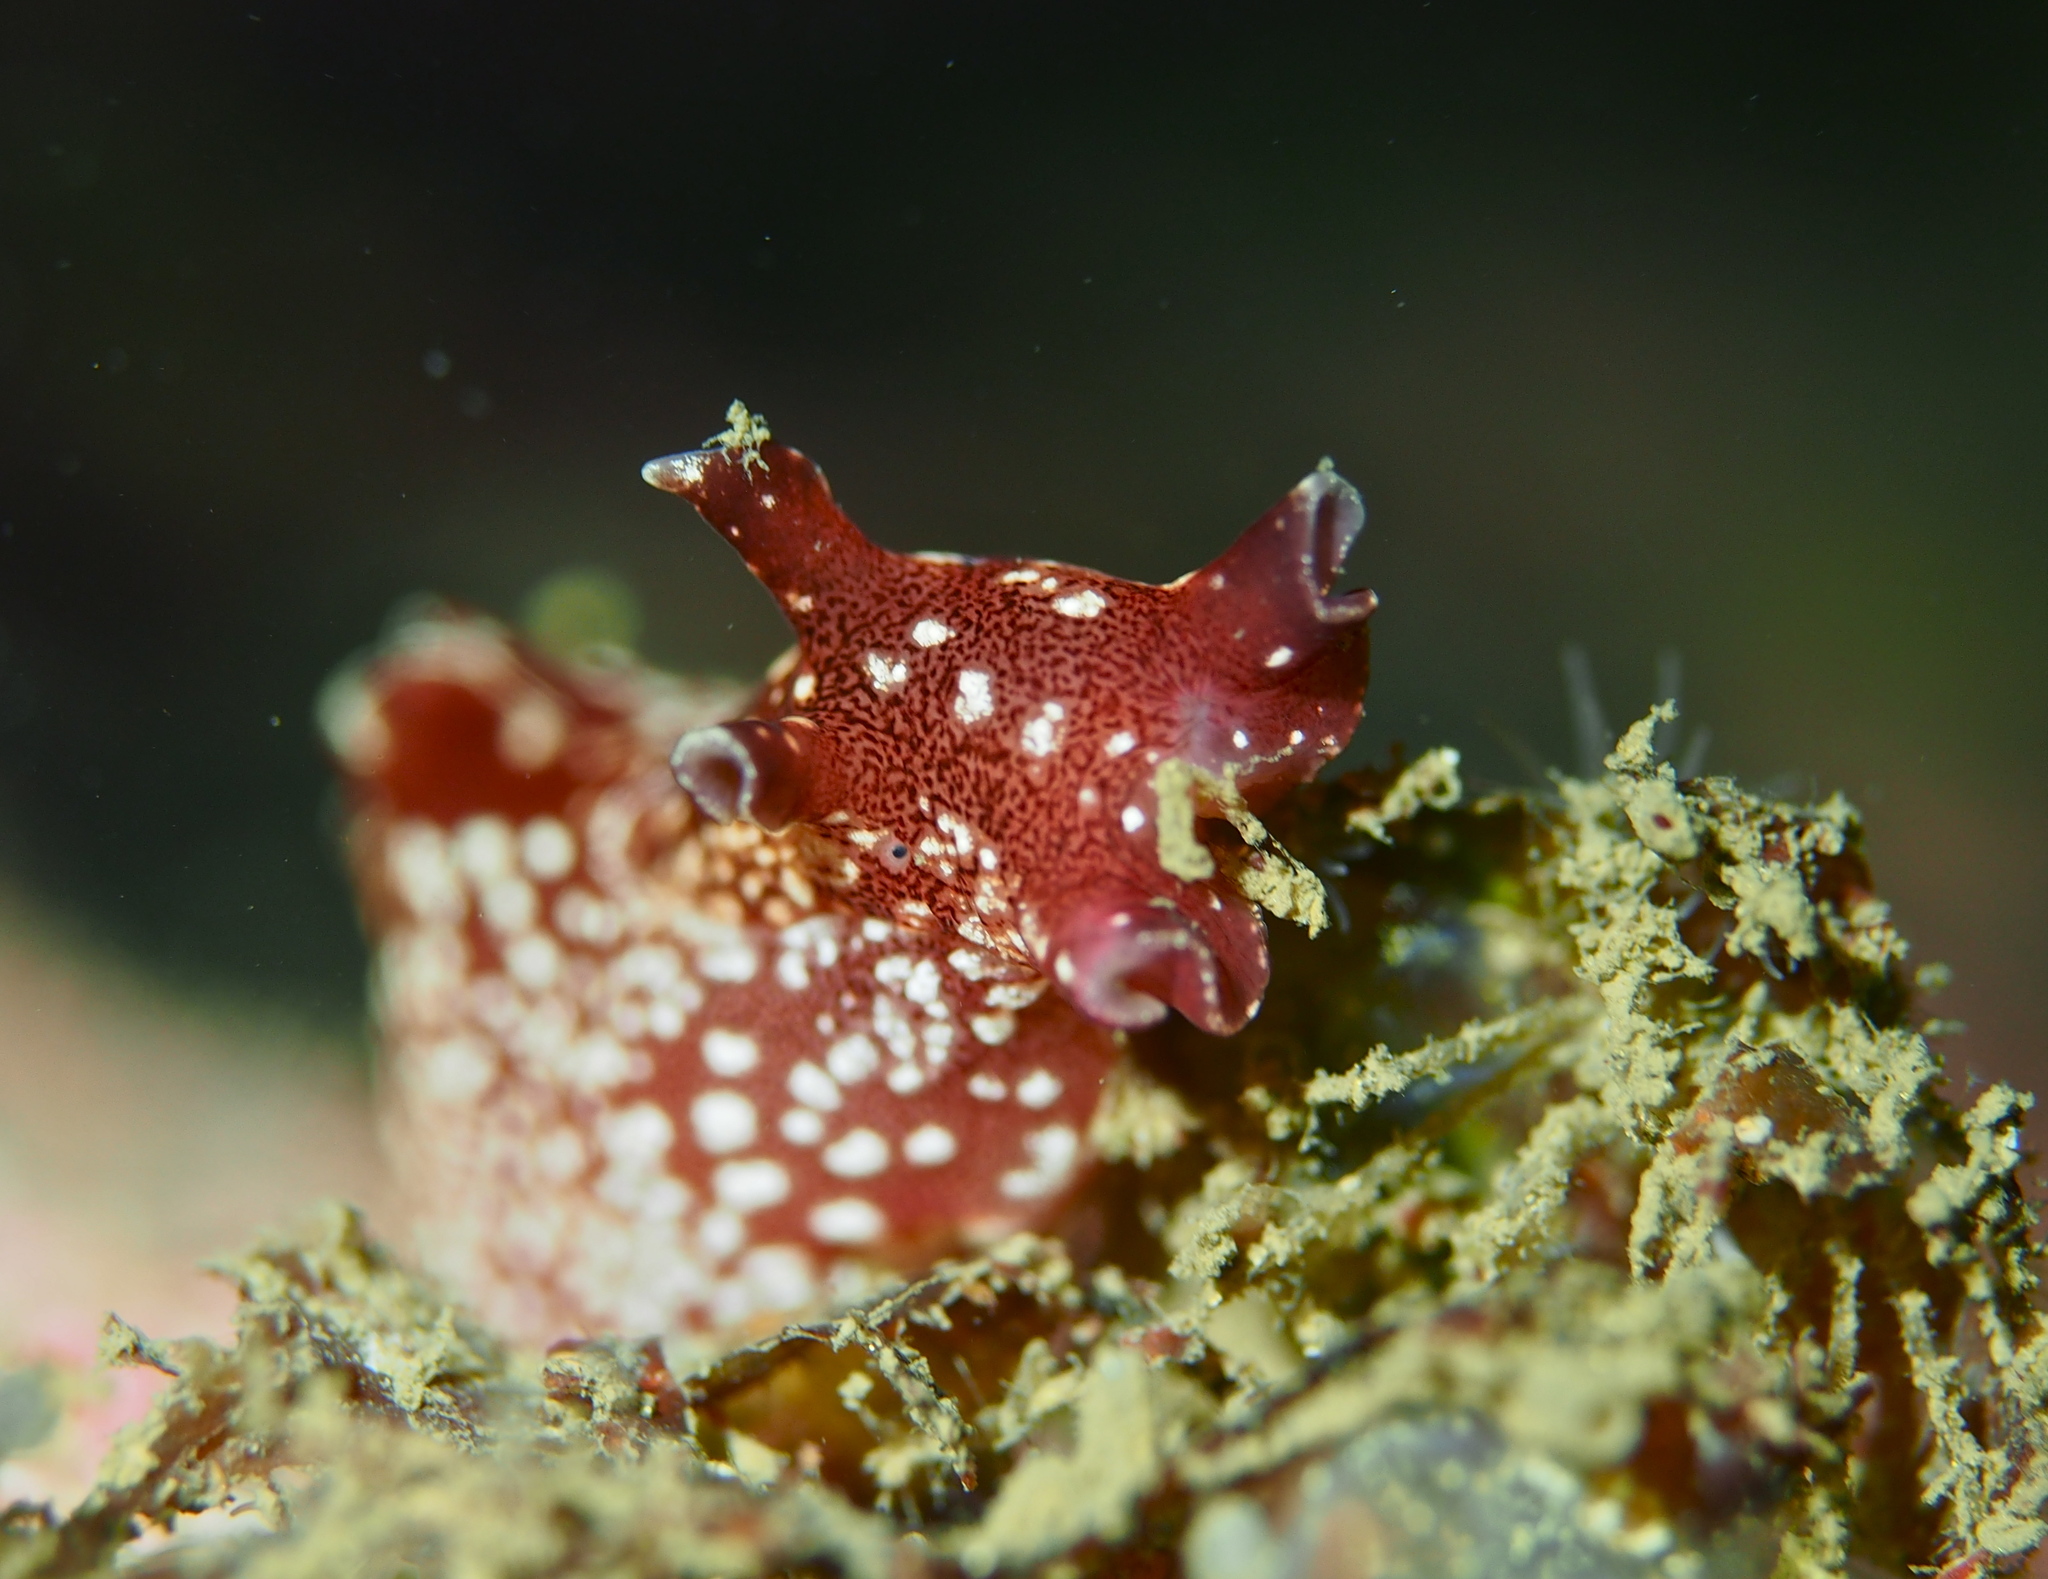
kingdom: Animalia
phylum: Mollusca
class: Gastropoda
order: Aplysiida
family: Aplysiidae
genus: Aplysia
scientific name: Aplysia punctata
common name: Common sea hare
